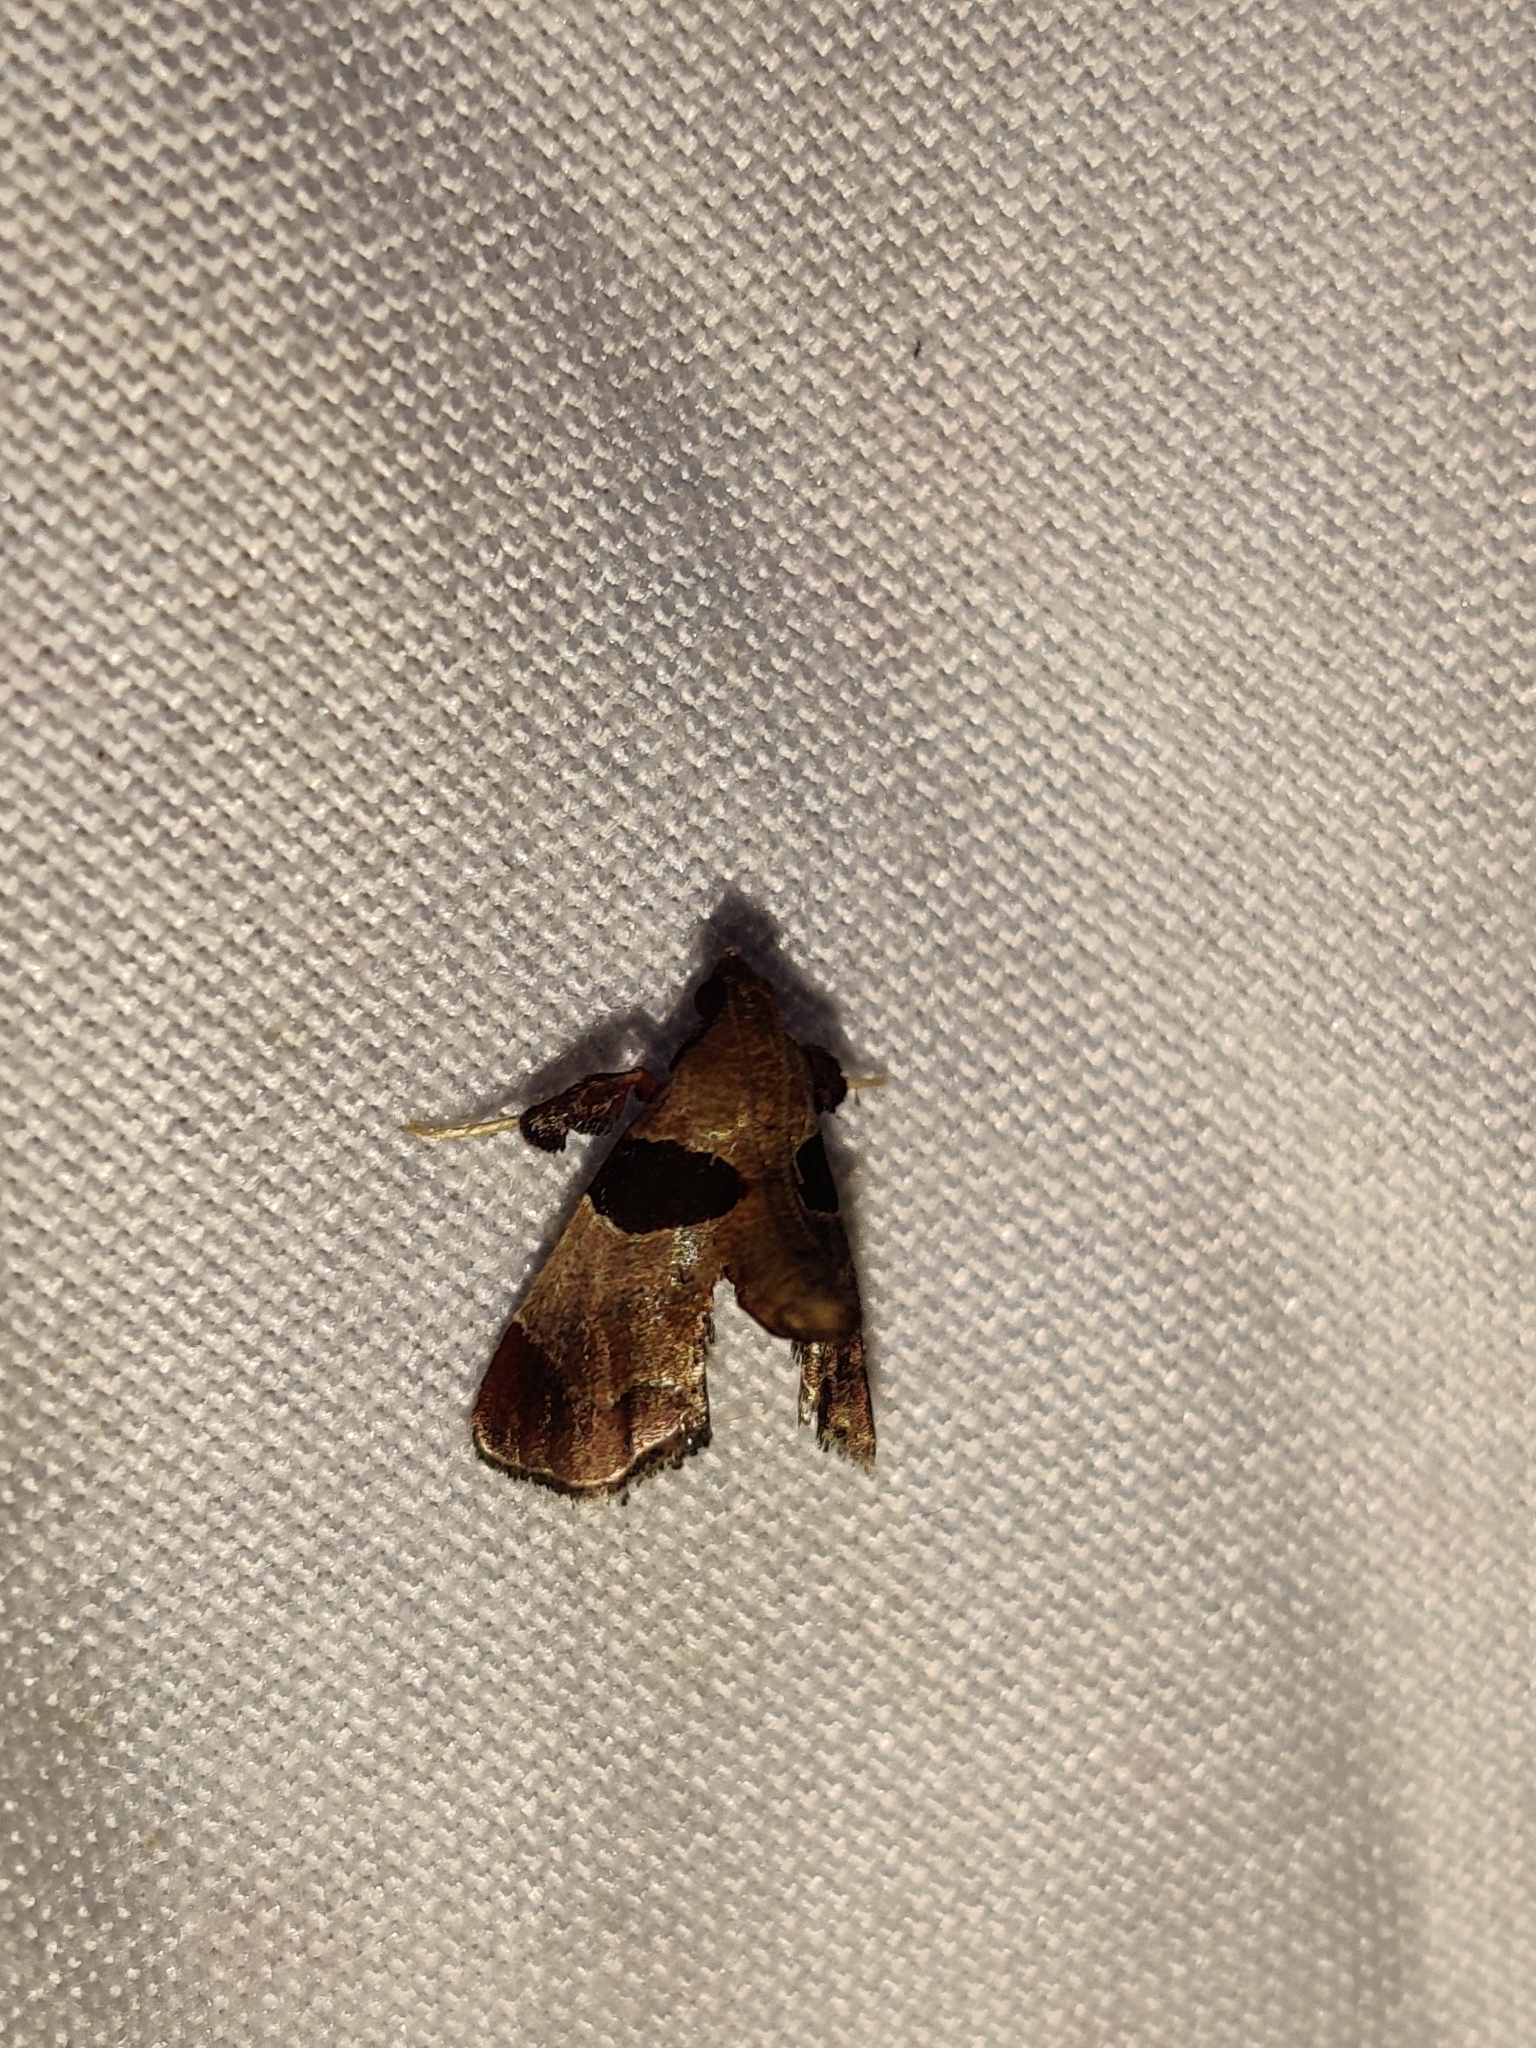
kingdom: Animalia
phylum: Arthropoda
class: Insecta
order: Lepidoptera
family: Pyralidae
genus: Tosale
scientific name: Tosale oviplagalis
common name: Dimorphic tosale moth
